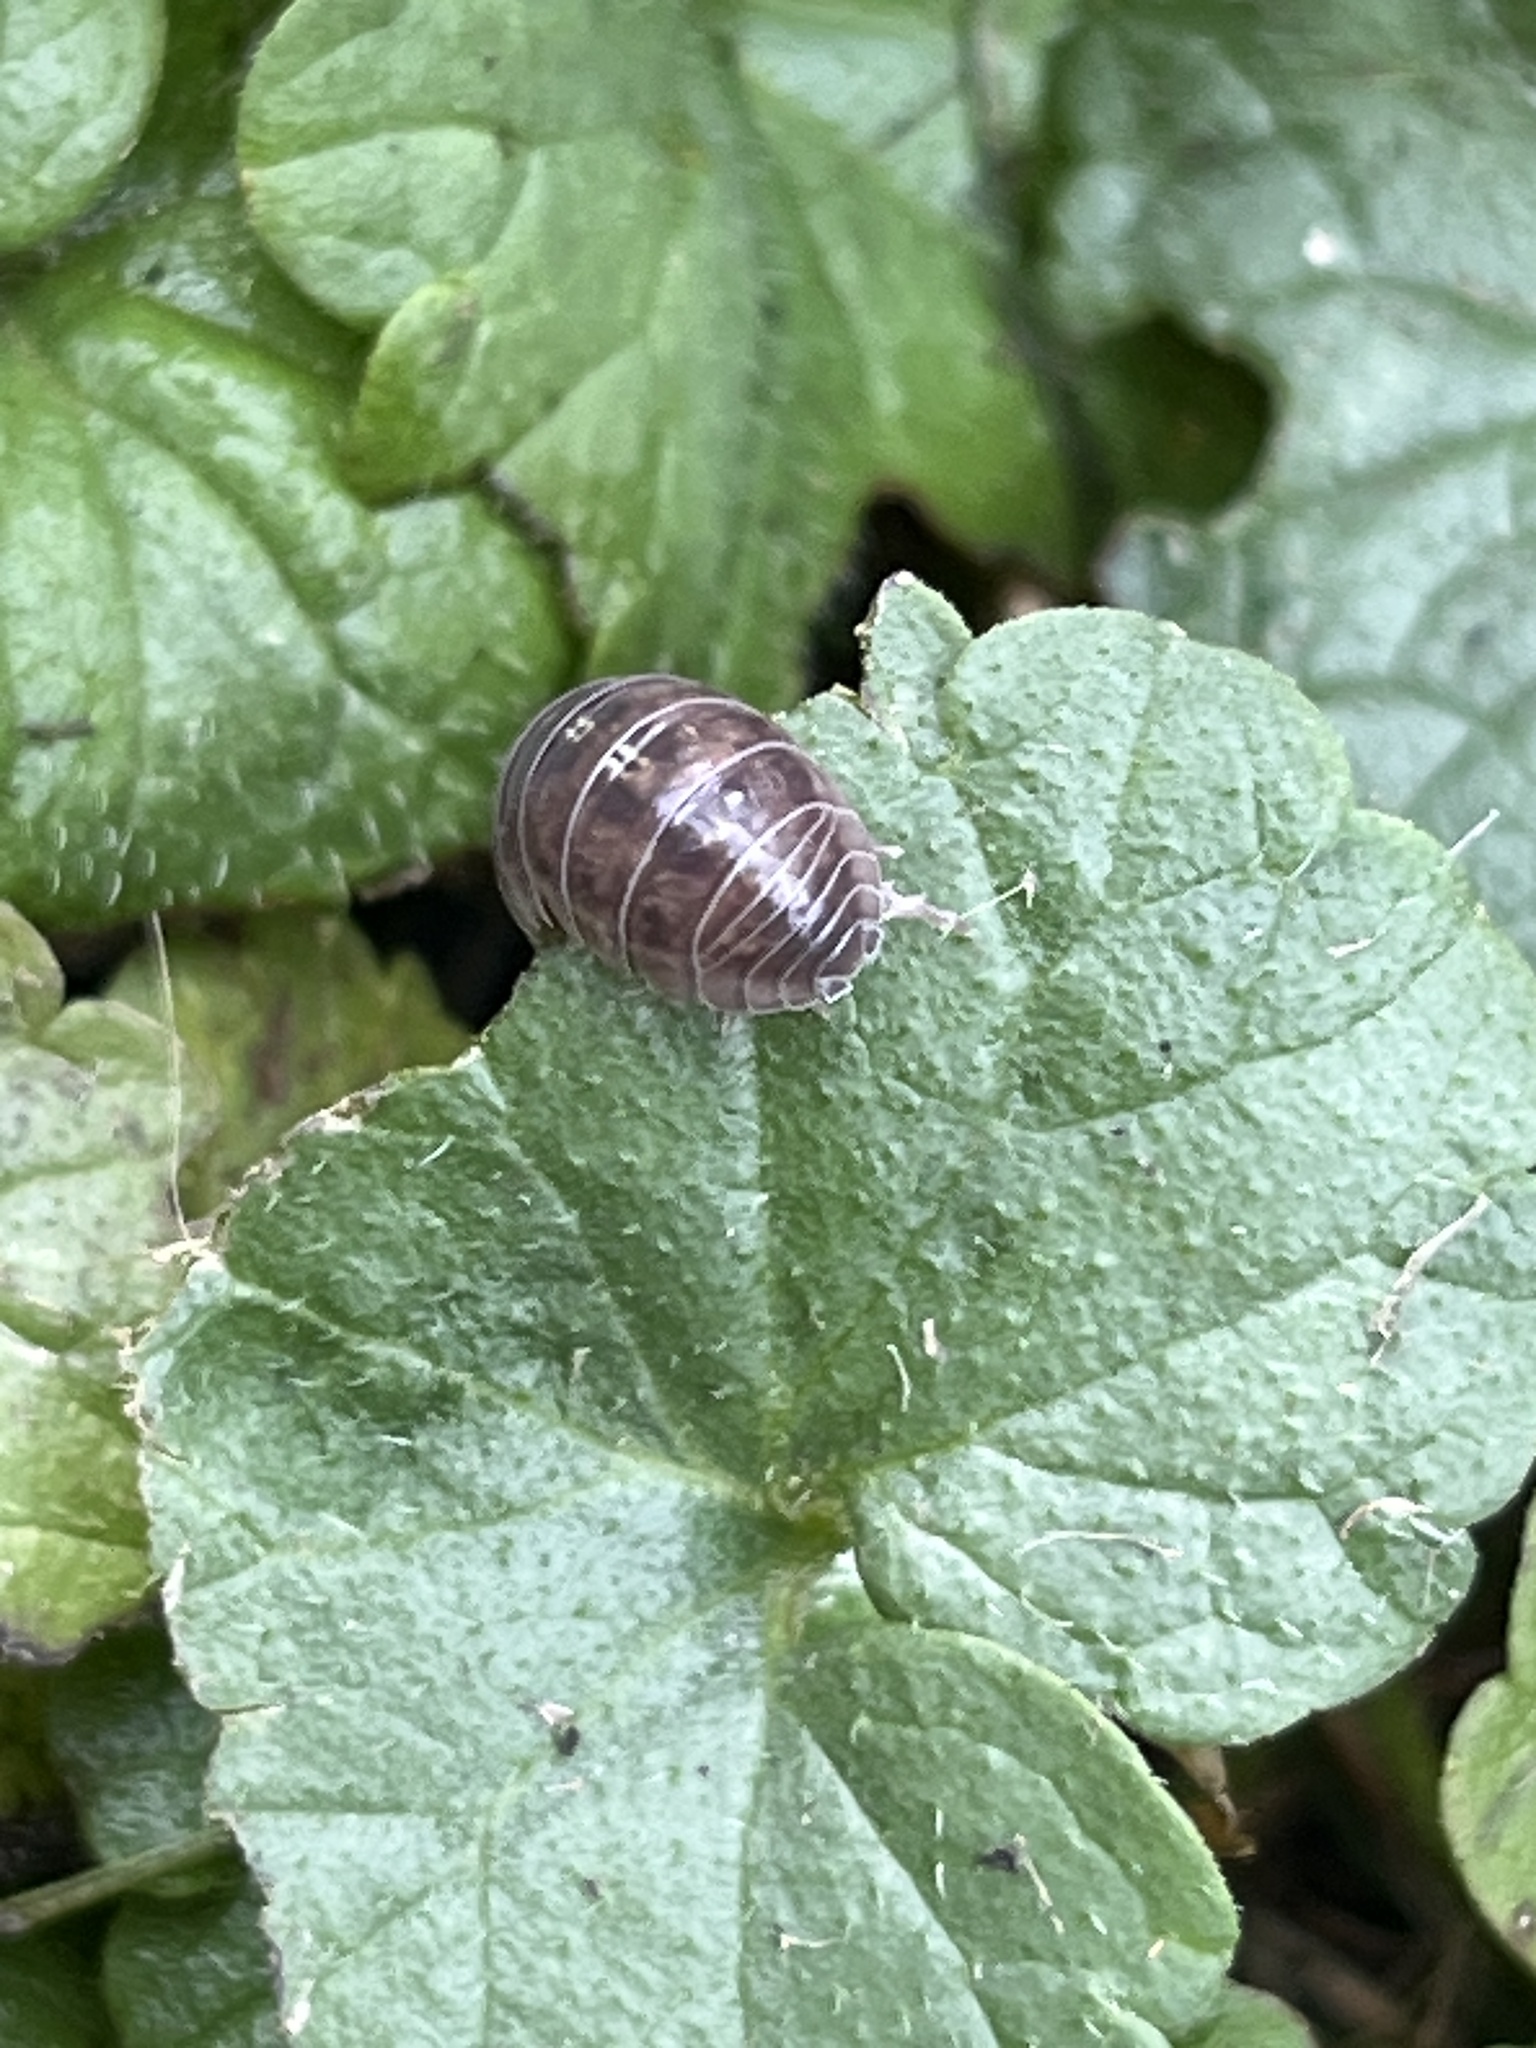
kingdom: Animalia
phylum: Arthropoda
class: Malacostraca
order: Isopoda
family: Armadillidiidae
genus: Armadillidium
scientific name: Armadillidium vulgare
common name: Common pill woodlouse
